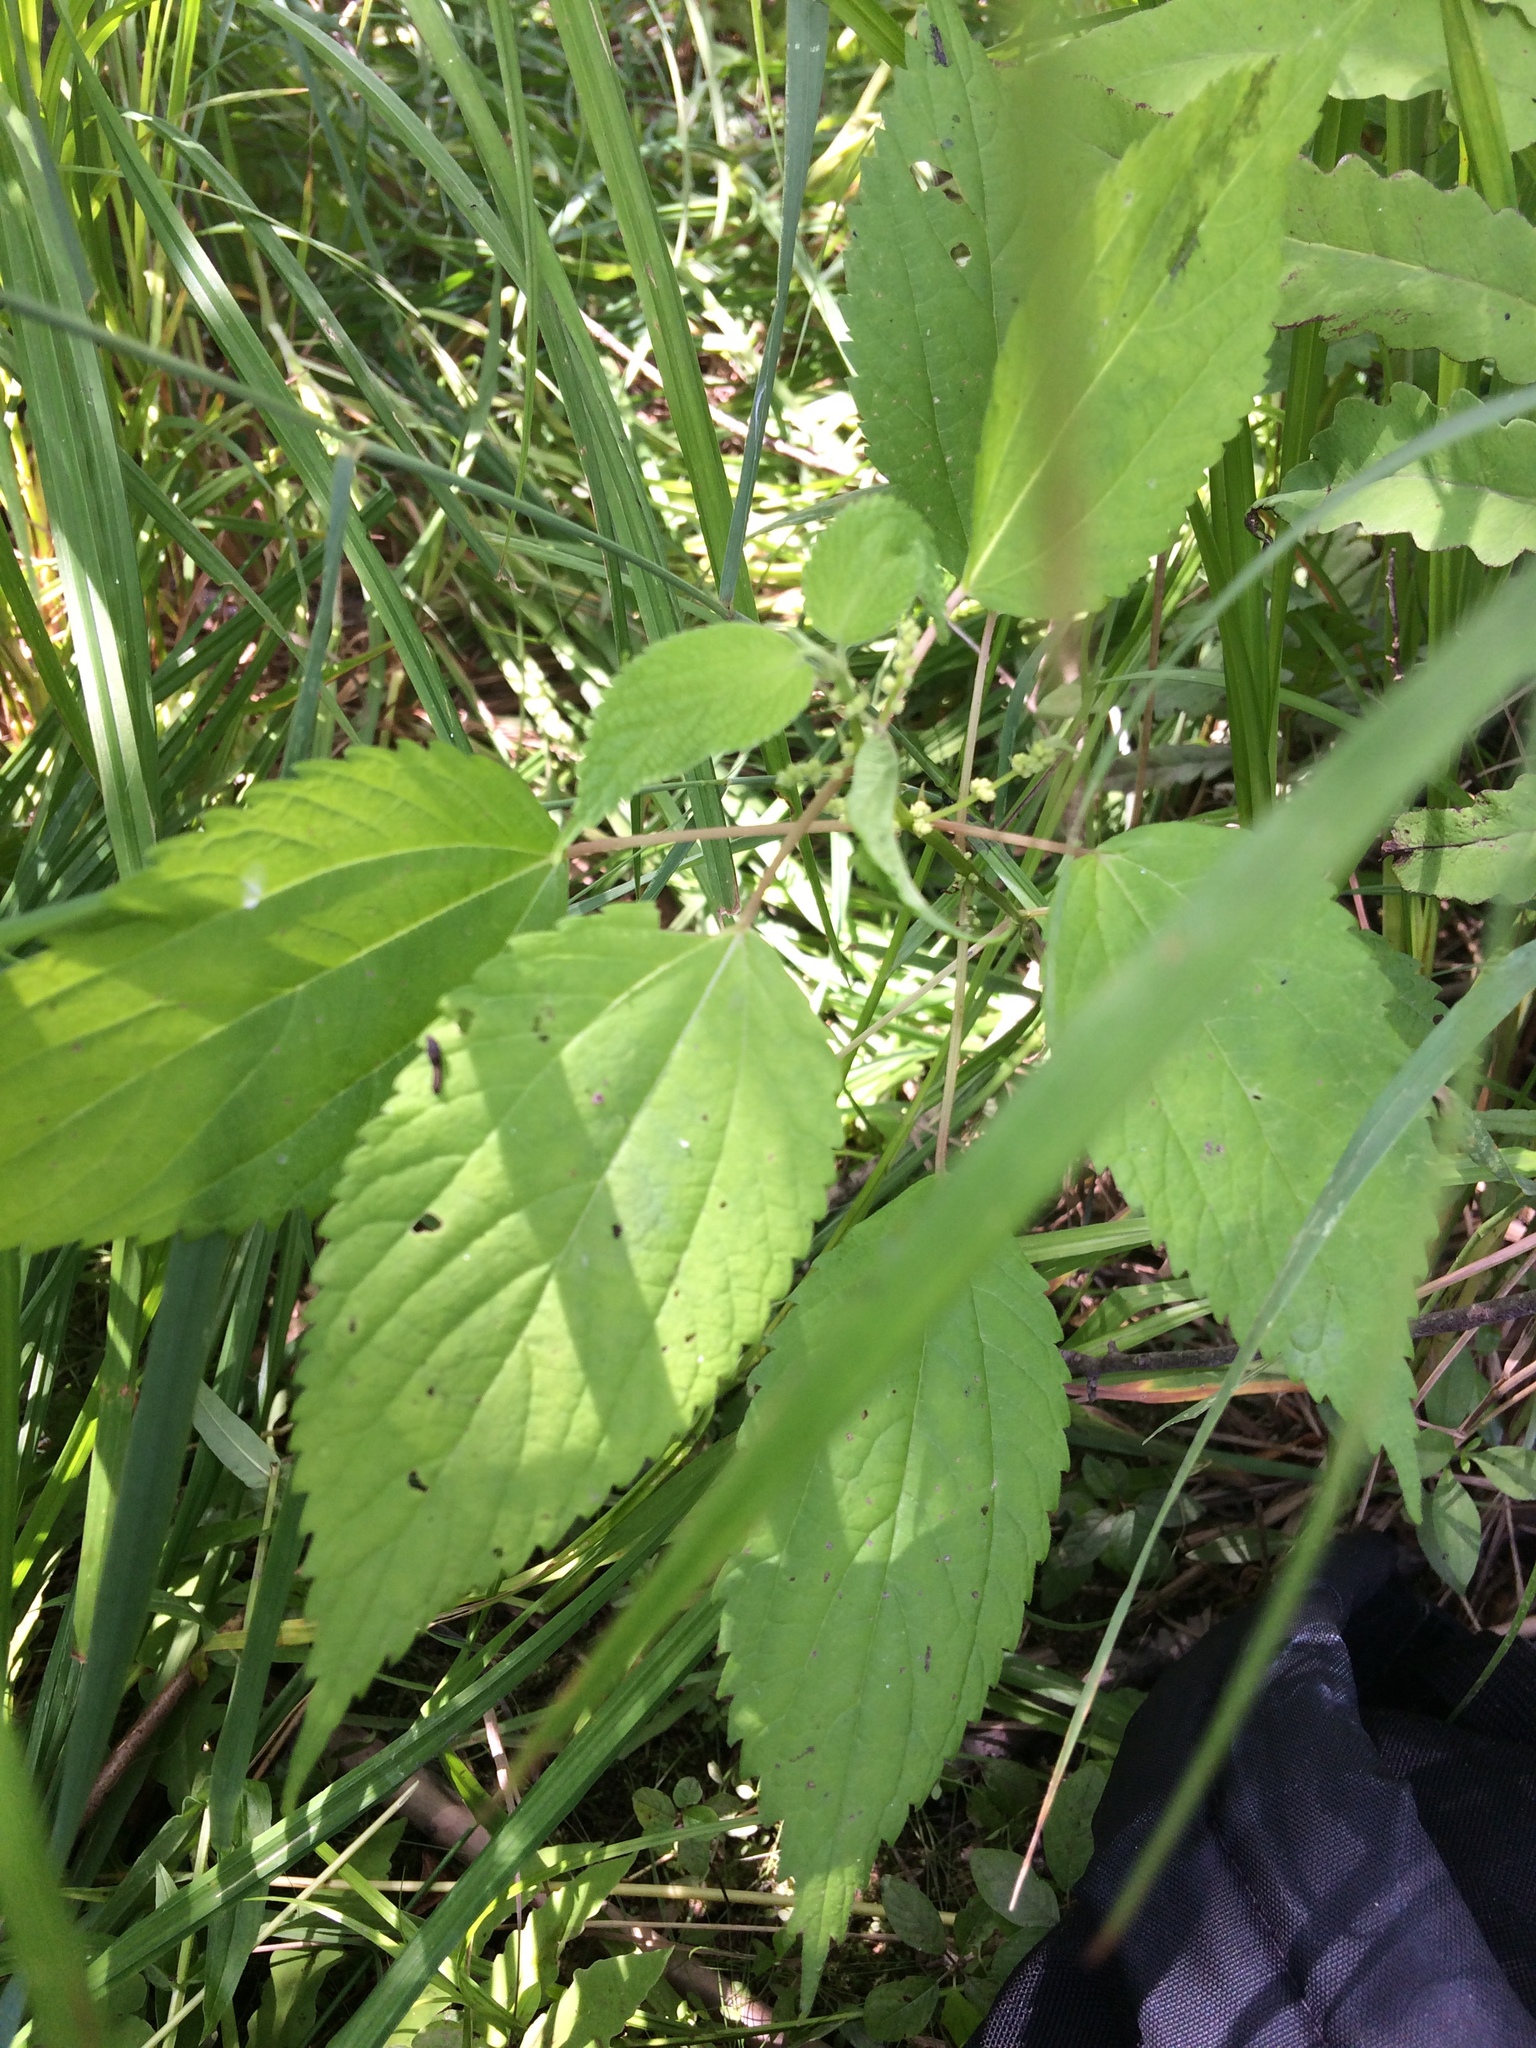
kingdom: Plantae
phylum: Tracheophyta
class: Magnoliopsida
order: Rosales
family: Urticaceae
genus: Boehmeria
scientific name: Boehmeria cylindrica
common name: Bog-hemp
